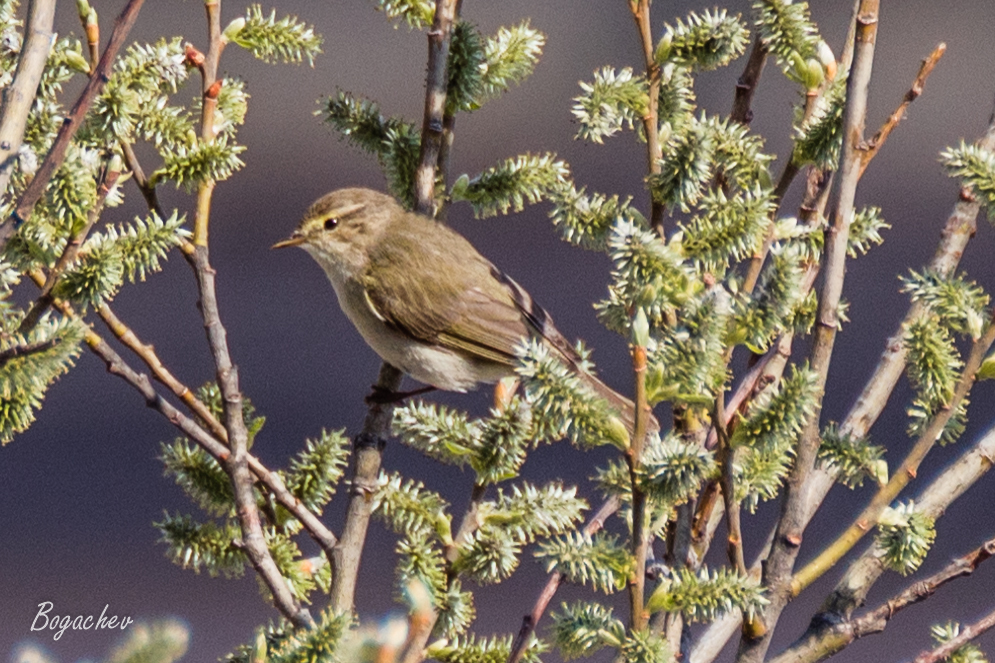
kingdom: Animalia
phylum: Chordata
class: Aves
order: Passeriformes
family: Phylloscopidae
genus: Phylloscopus
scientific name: Phylloscopus collybita
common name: Common chiffchaff
